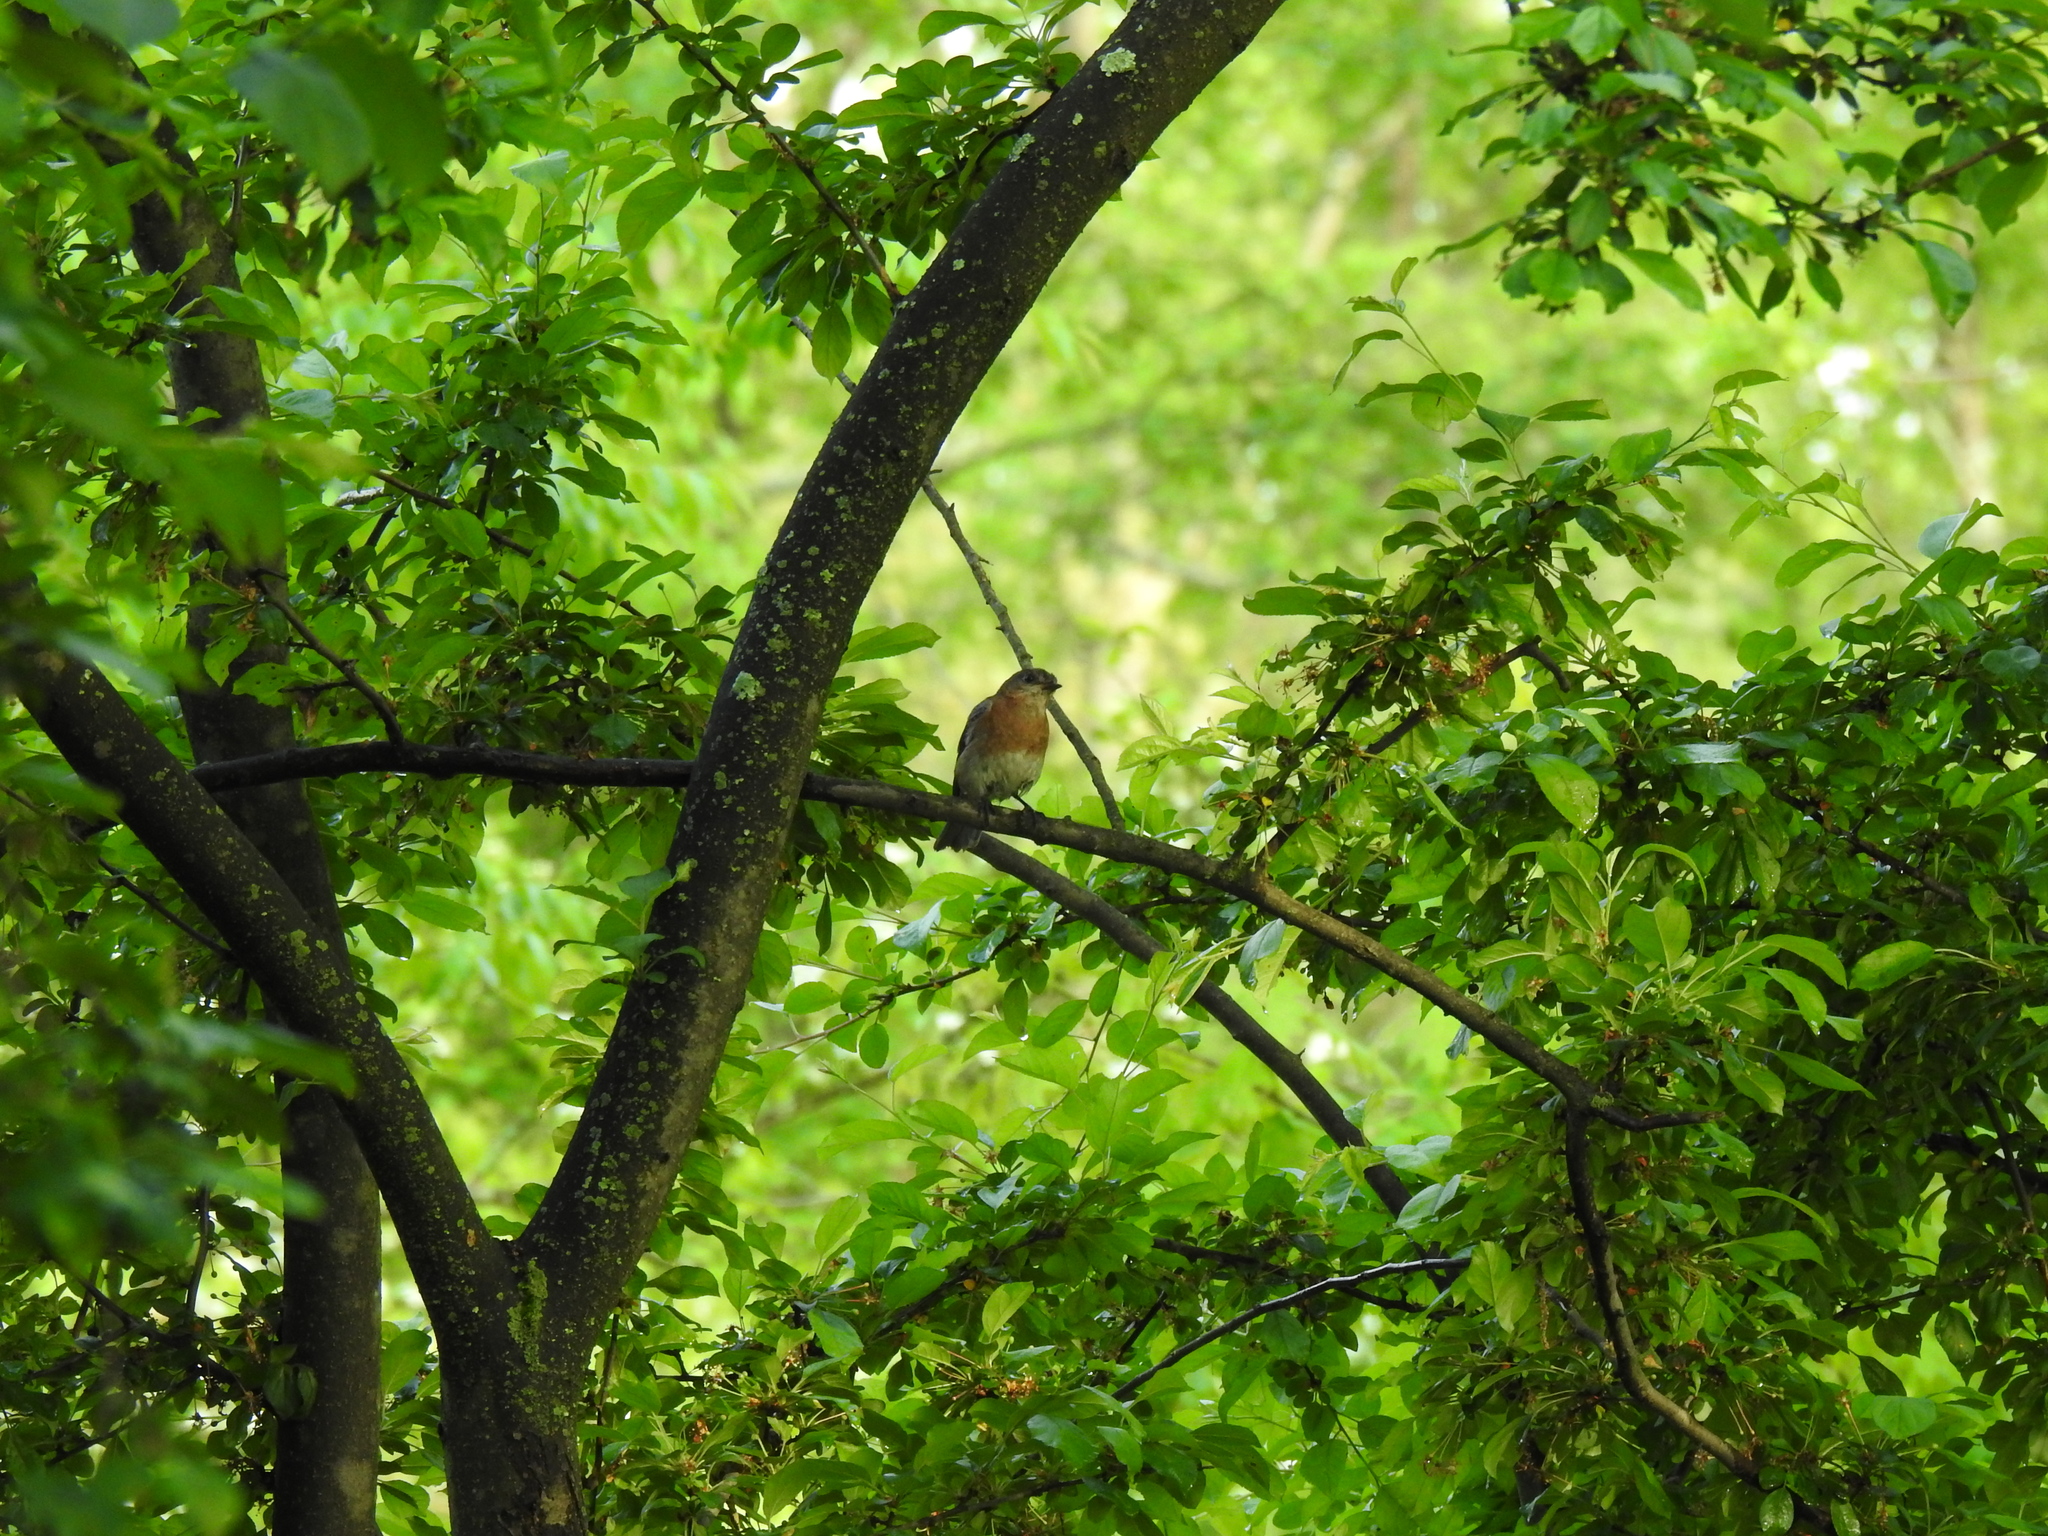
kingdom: Animalia
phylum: Chordata
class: Aves
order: Passeriformes
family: Turdidae
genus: Sialia
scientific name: Sialia sialis
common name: Eastern bluebird
